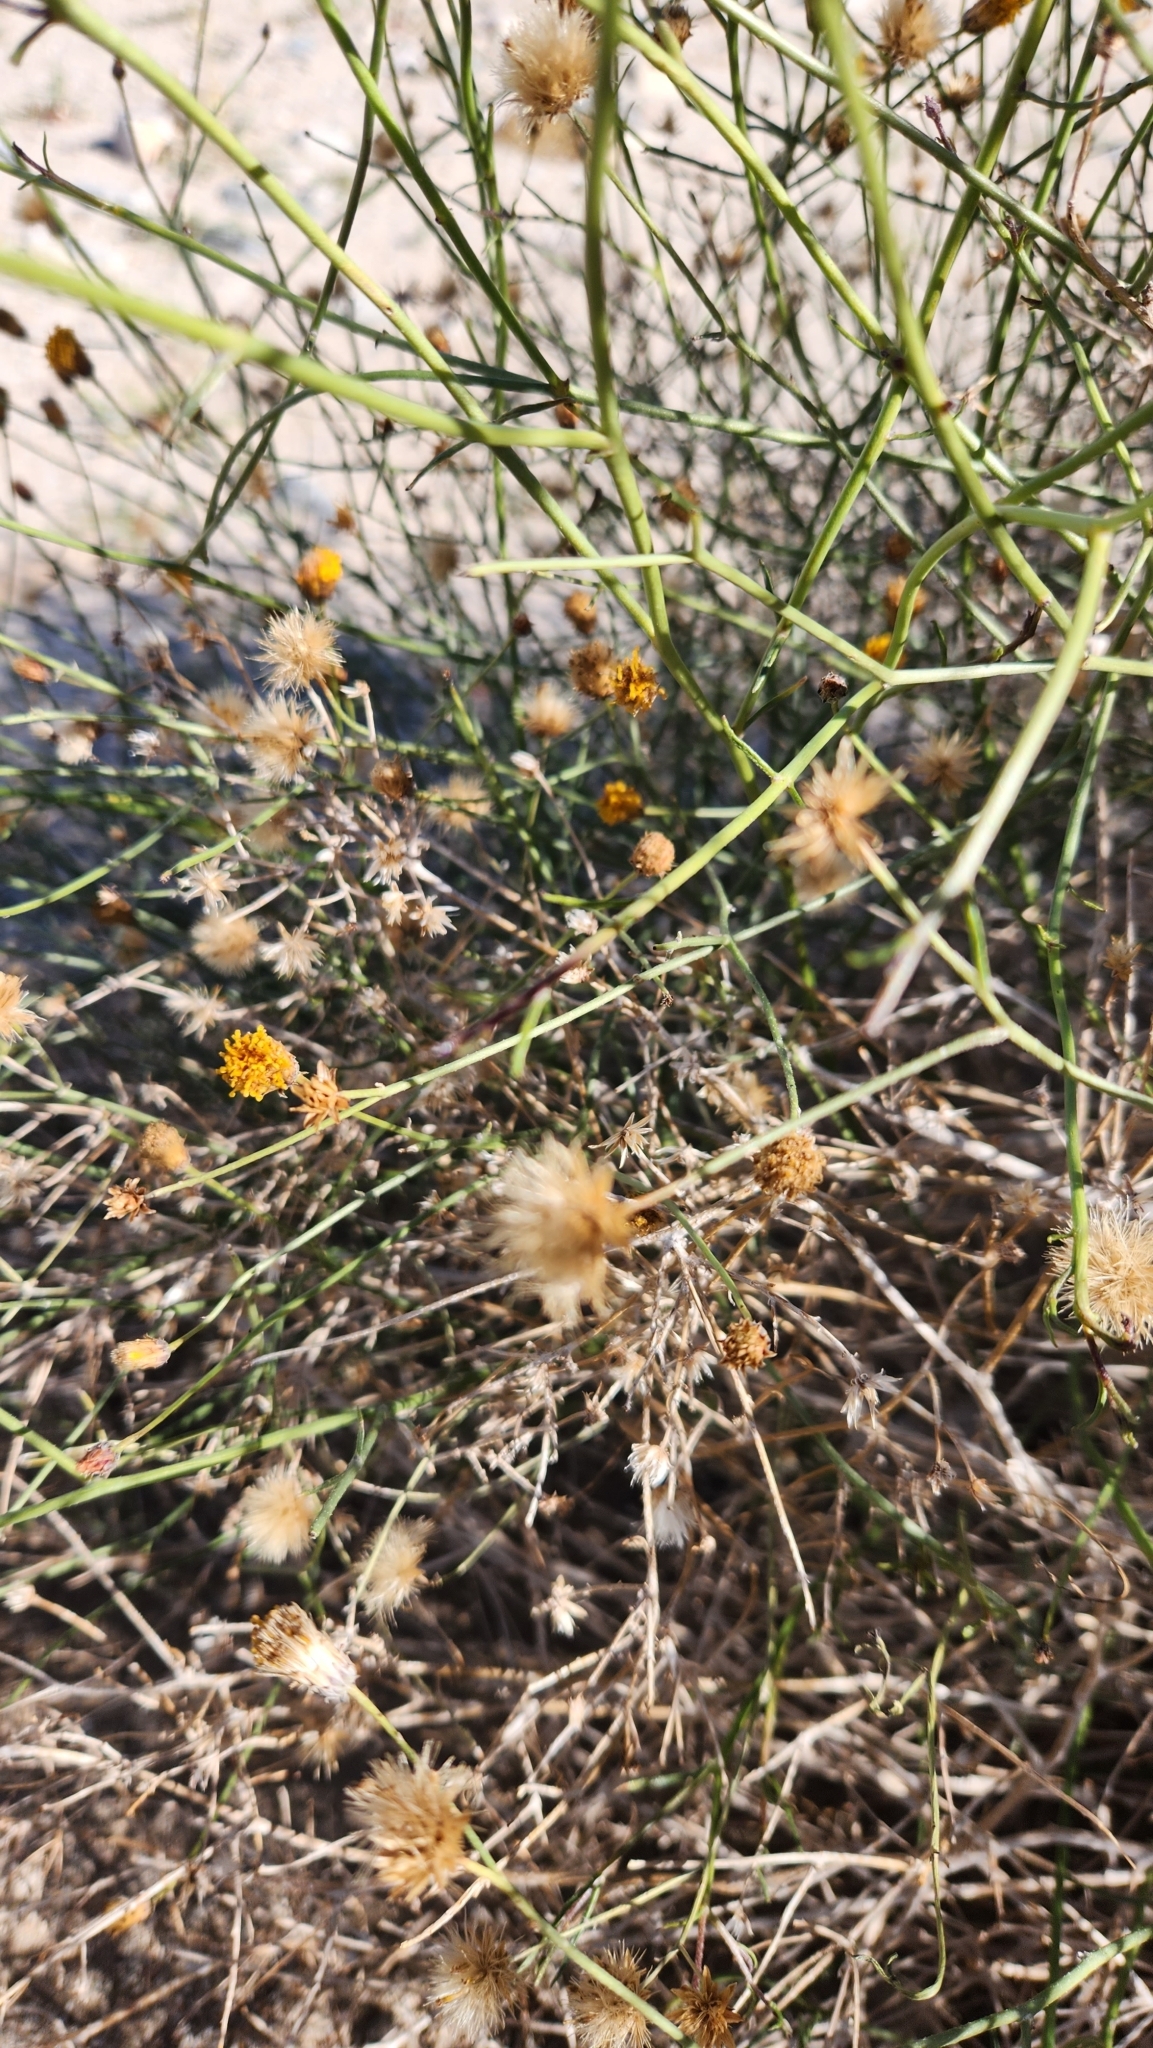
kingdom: Plantae
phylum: Tracheophyta
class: Magnoliopsida
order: Asterales
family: Asteraceae
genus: Bebbia
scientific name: Bebbia juncea
